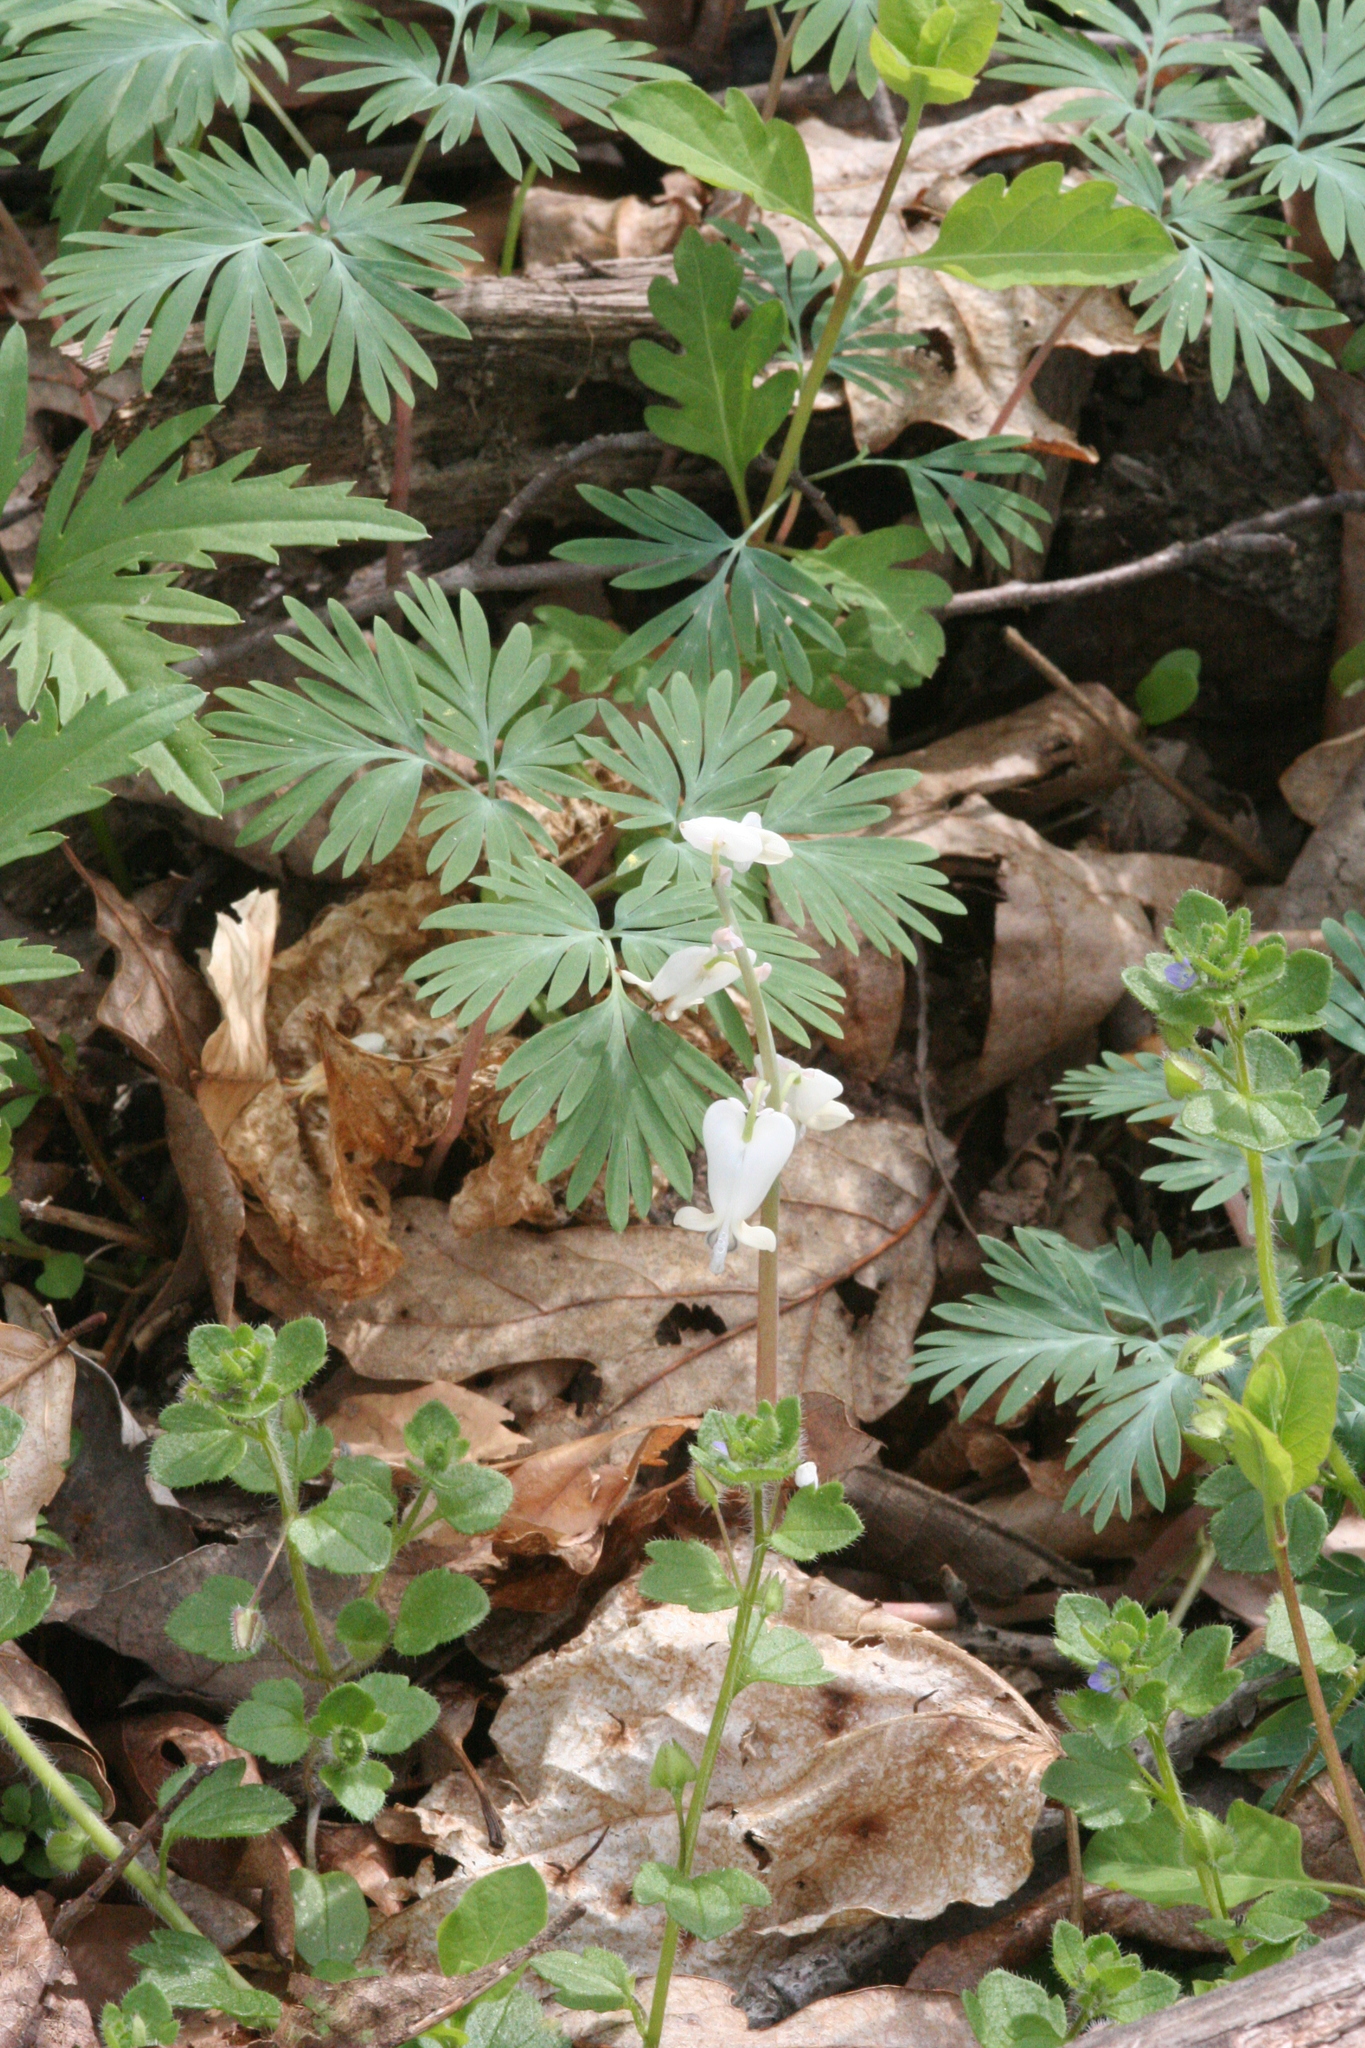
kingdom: Plantae
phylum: Tracheophyta
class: Magnoliopsida
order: Ranunculales
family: Papaveraceae
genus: Dicentra
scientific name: Dicentra canadensis
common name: Squirrel-corn
